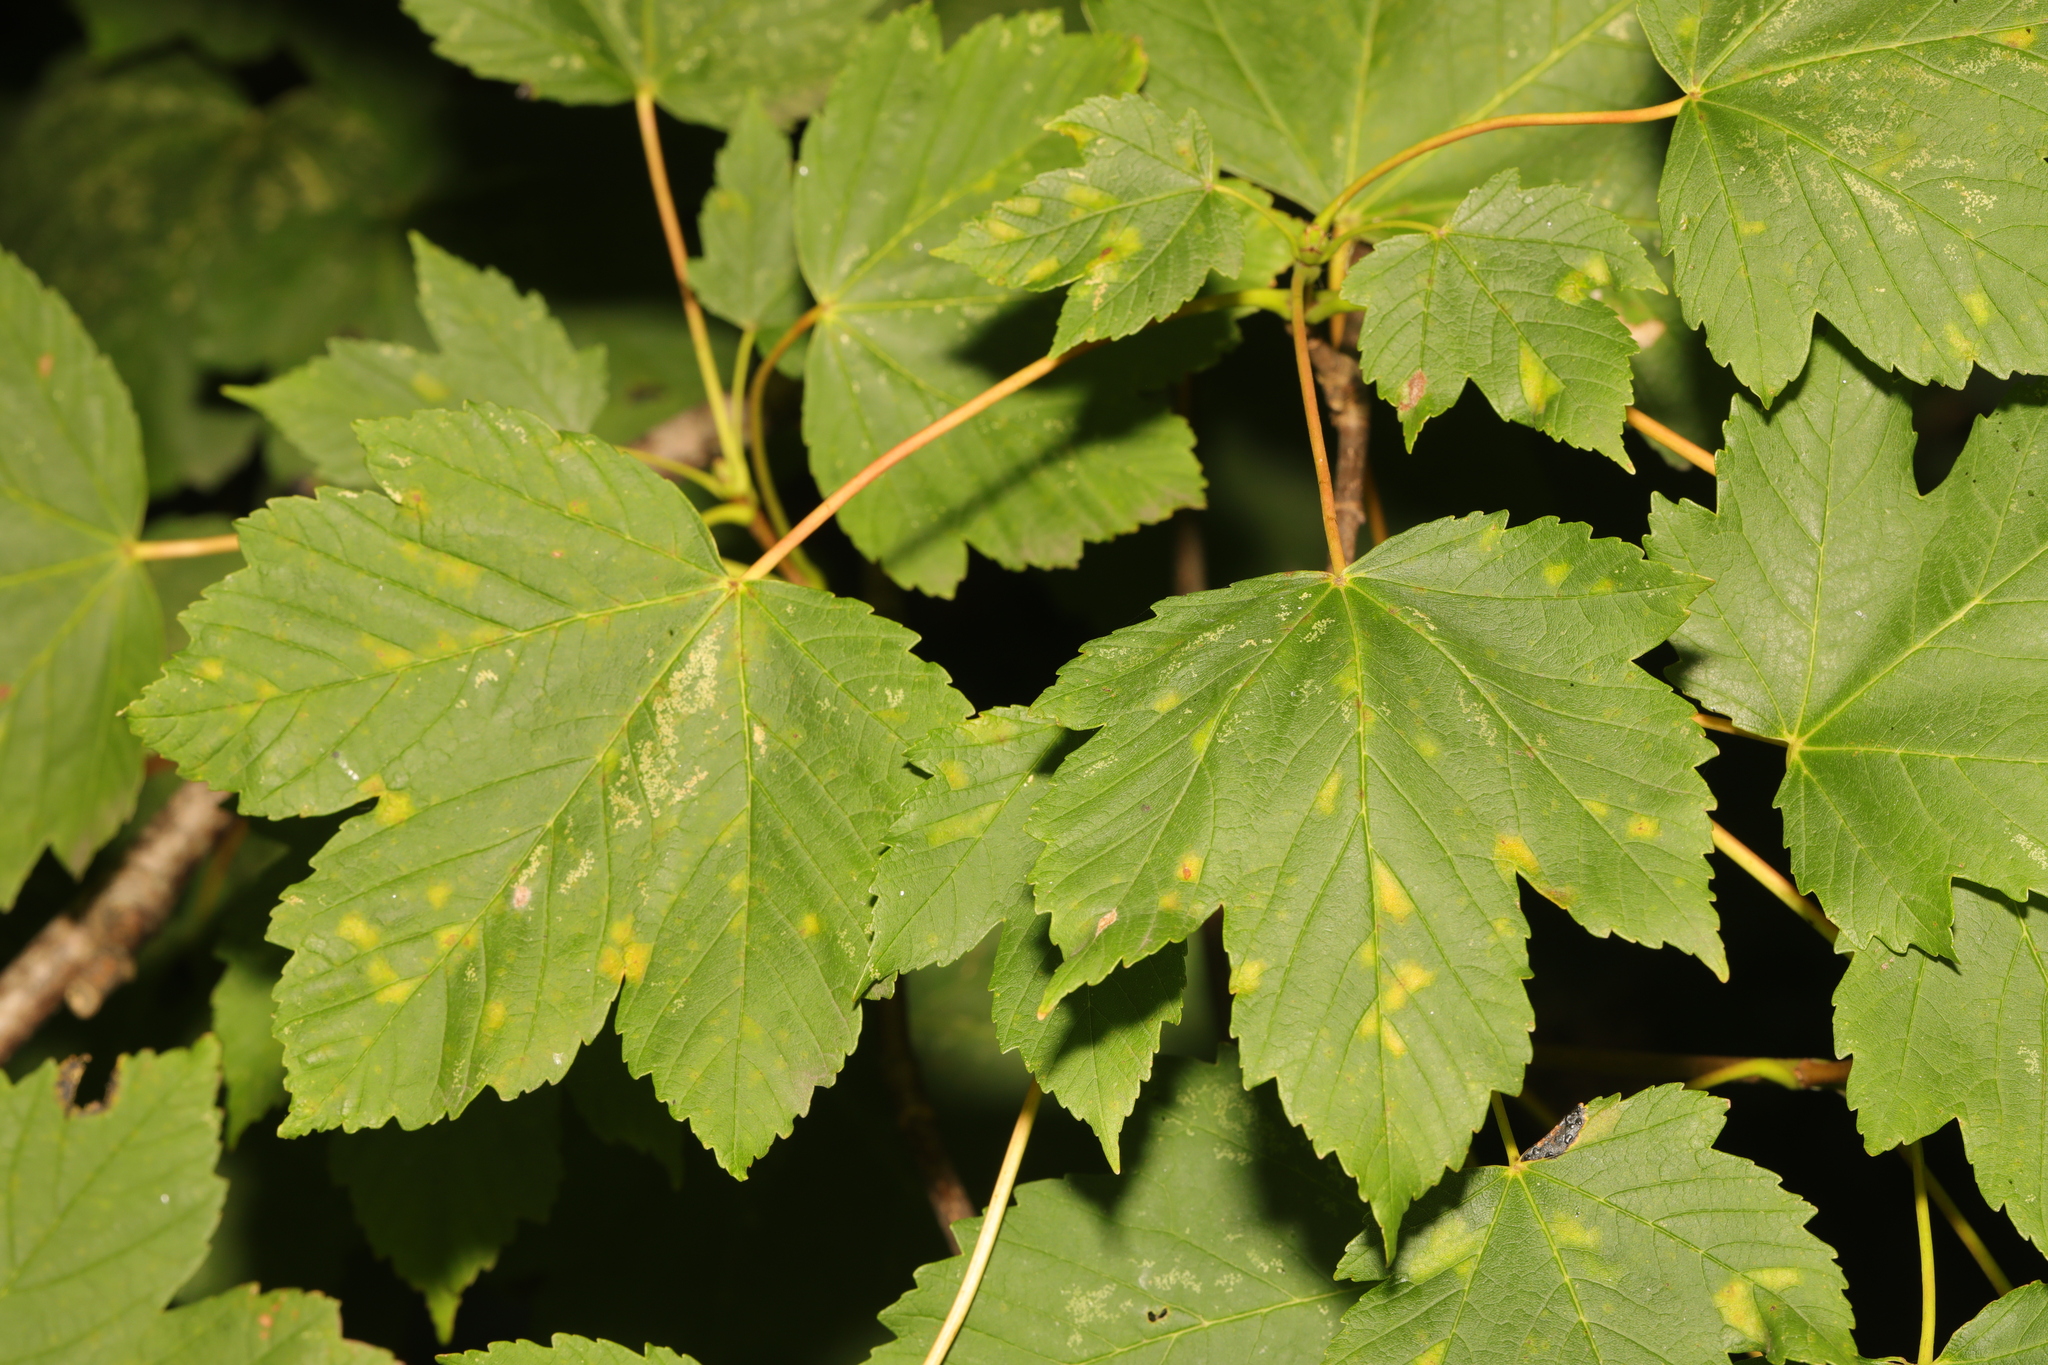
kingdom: Plantae
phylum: Tracheophyta
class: Magnoliopsida
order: Sapindales
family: Sapindaceae
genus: Acer
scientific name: Acer pseudoplatanus
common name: Sycamore
